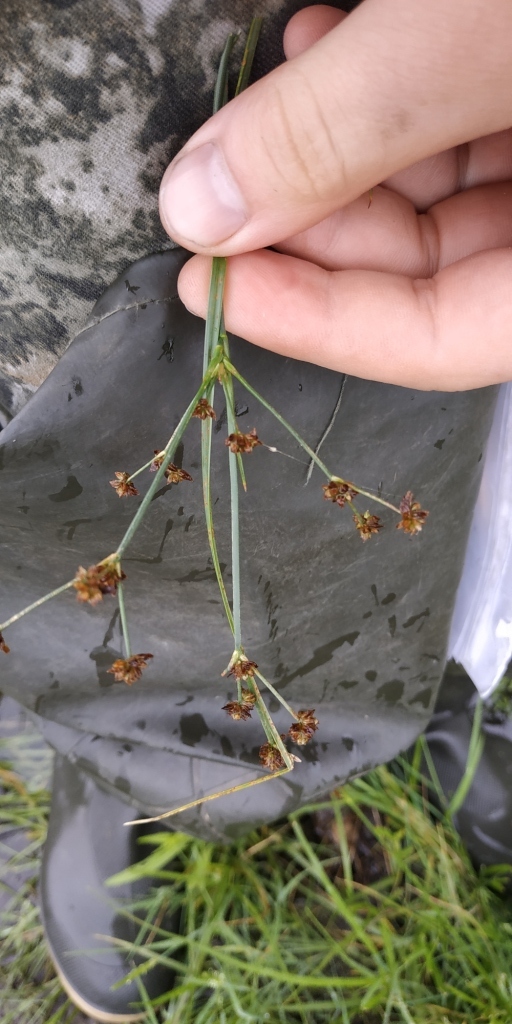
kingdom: Plantae
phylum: Tracheophyta
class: Liliopsida
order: Poales
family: Juncaceae
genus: Juncus
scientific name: Juncus articulatus
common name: Jointed rush
